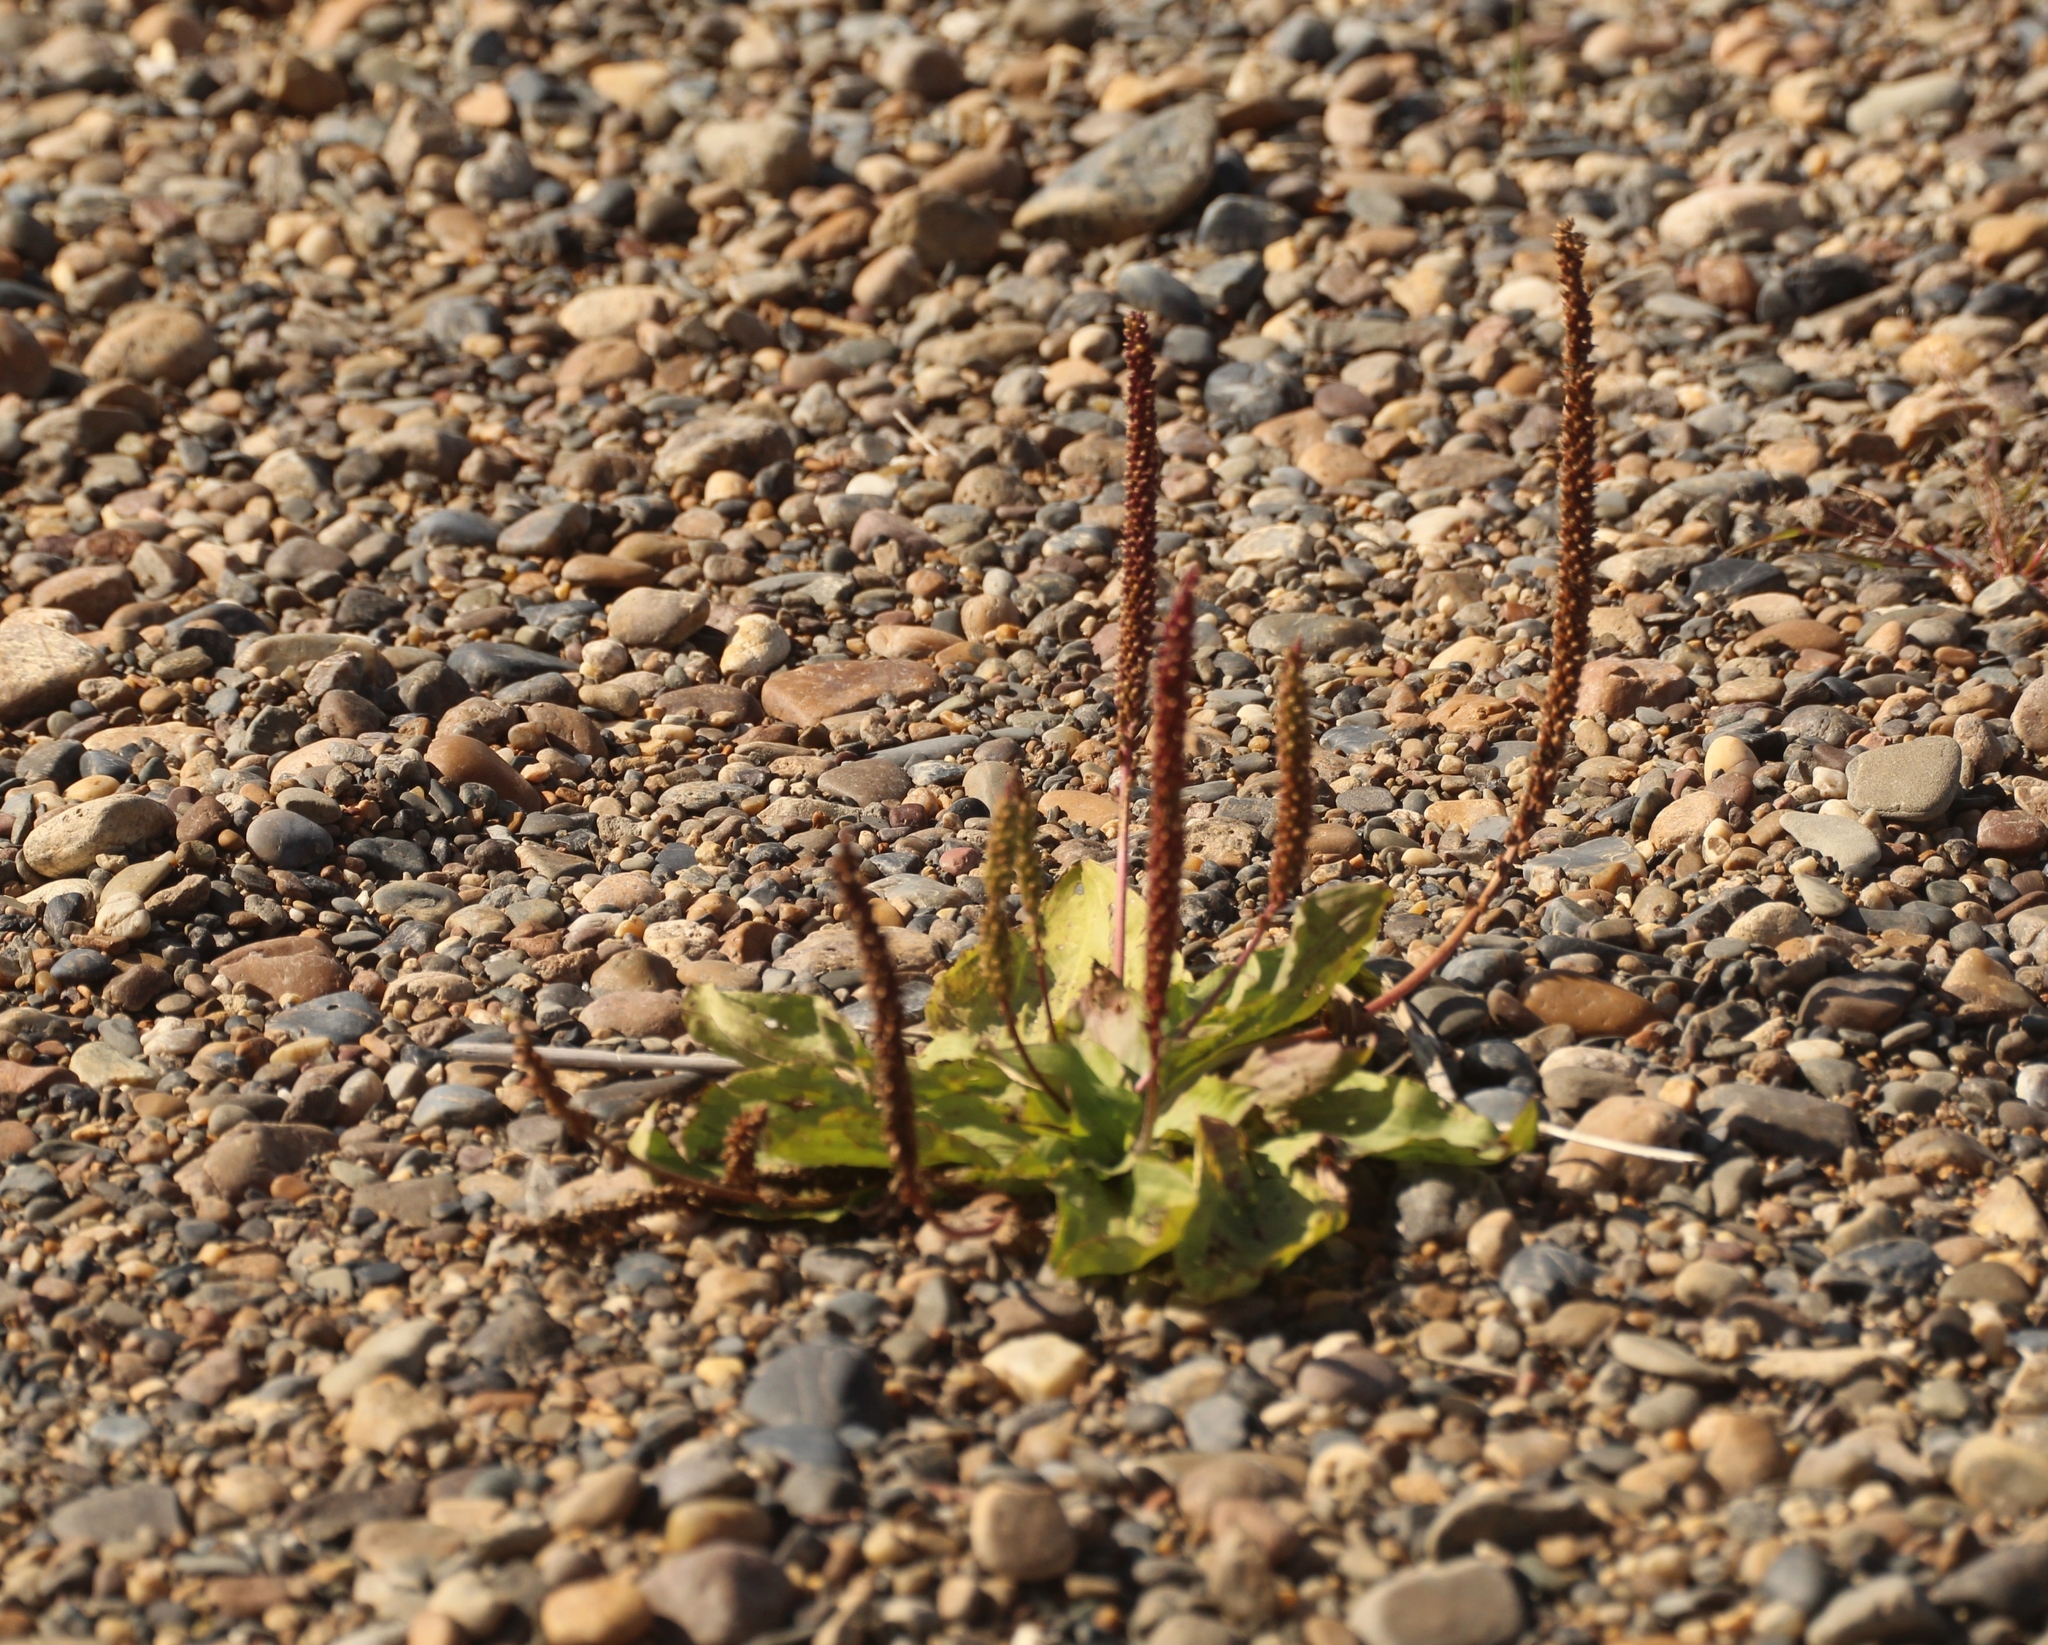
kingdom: Plantae
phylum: Tracheophyta
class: Magnoliopsida
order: Lamiales
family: Plantaginaceae
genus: Plantago
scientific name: Plantago depressa
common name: Depressed plantain
